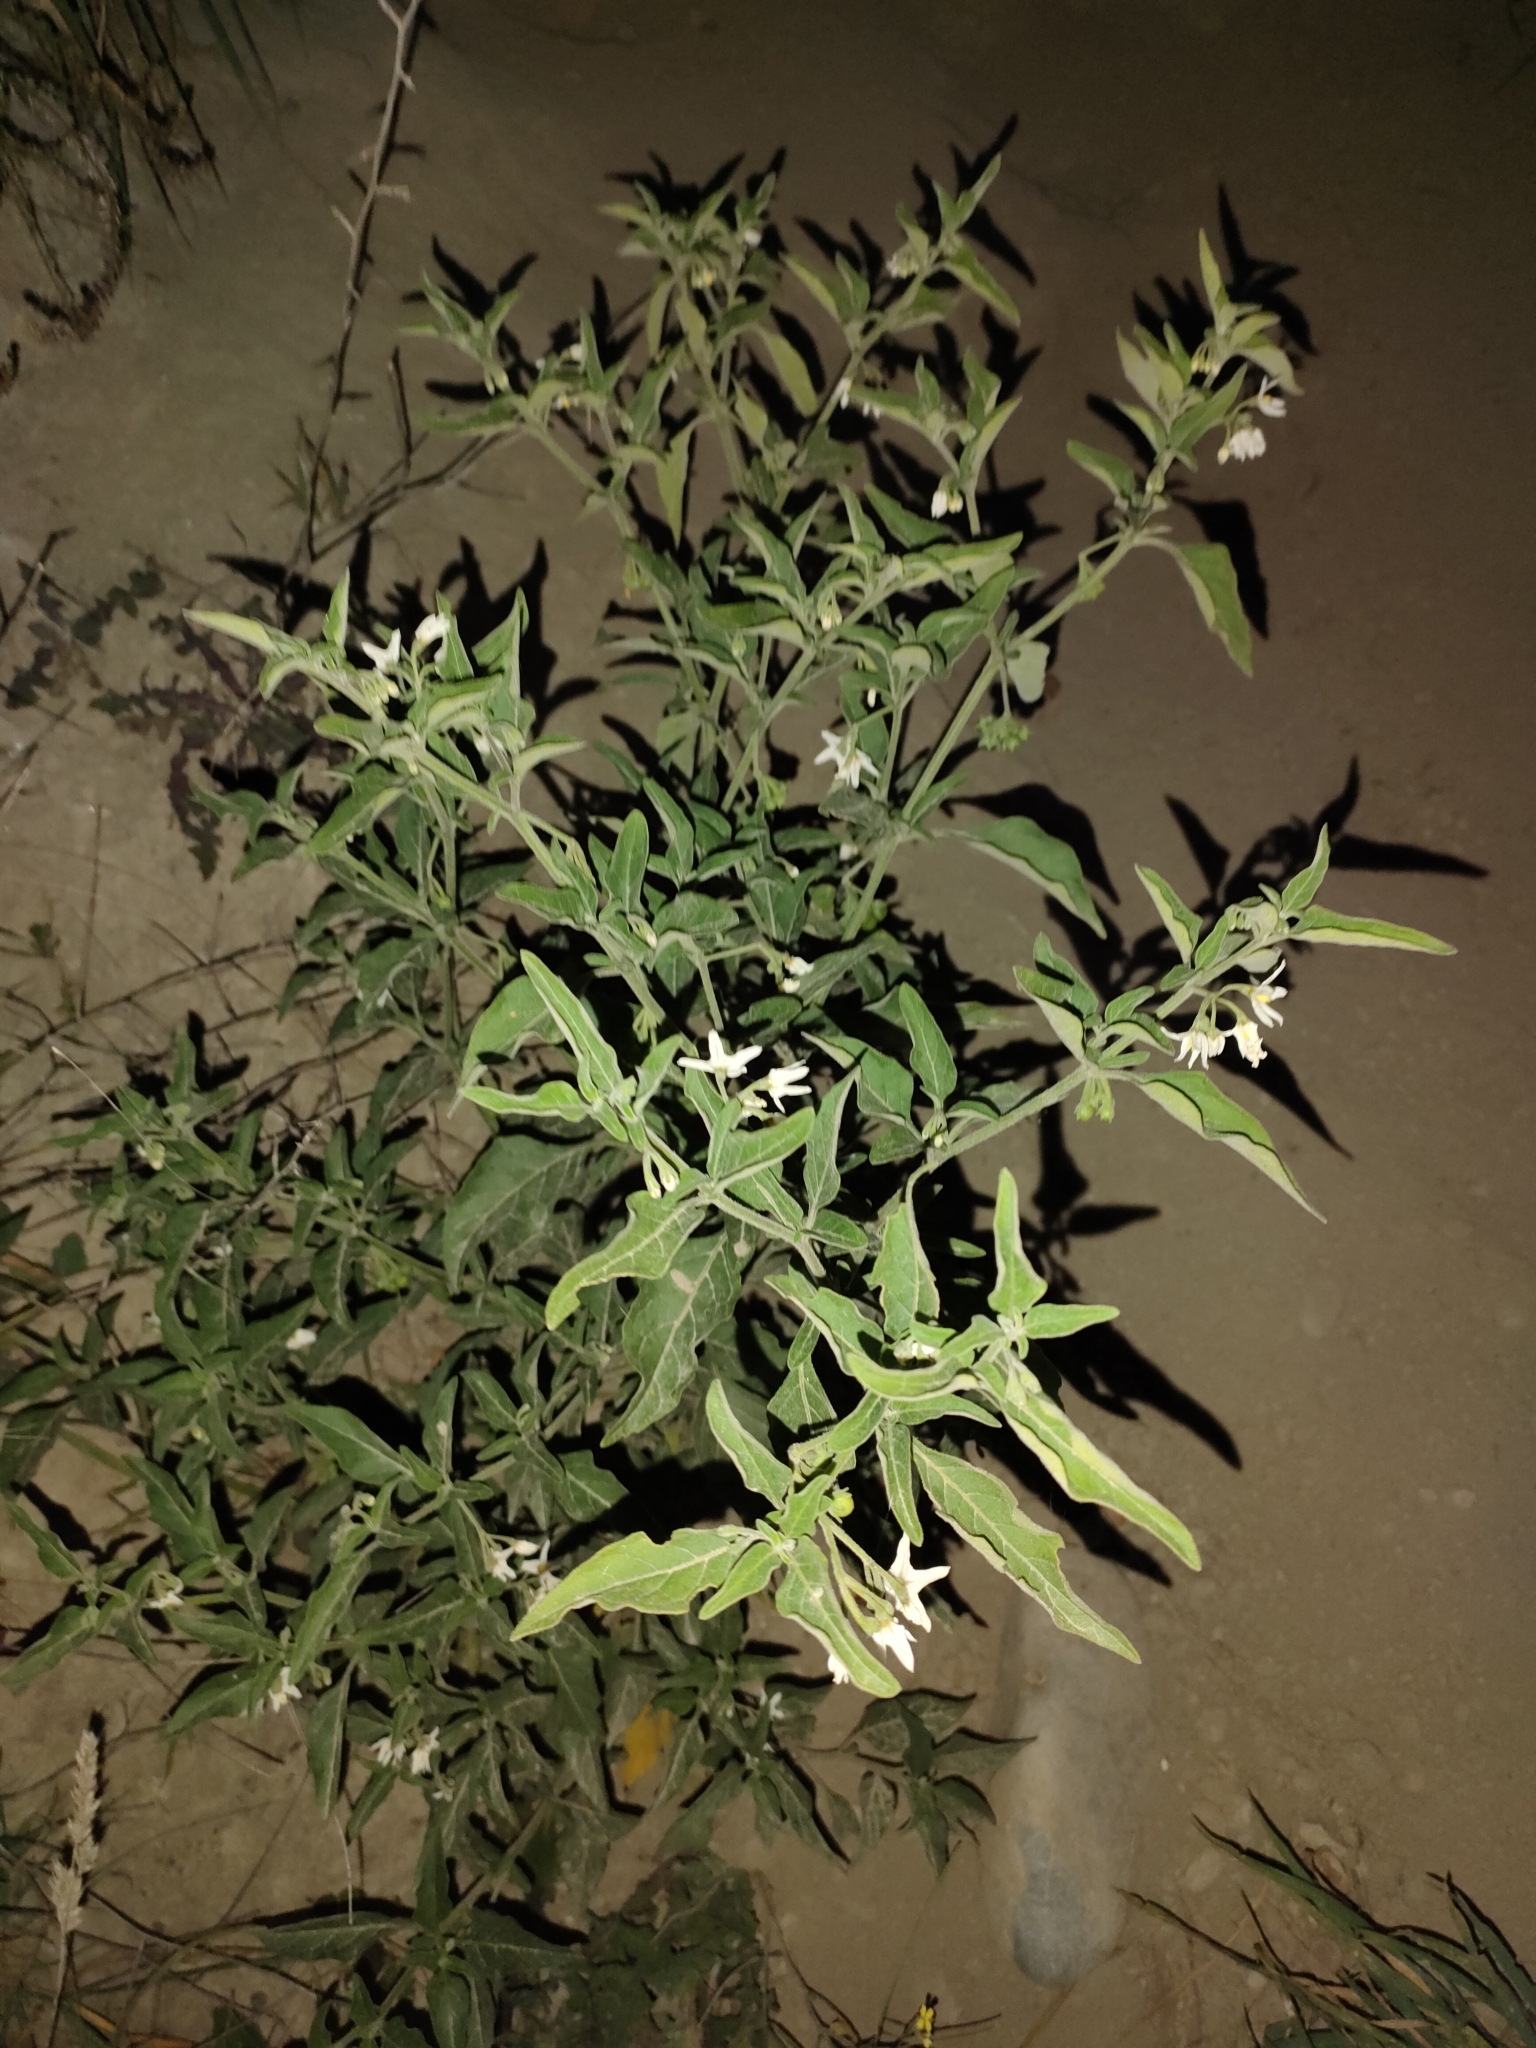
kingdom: Plantae
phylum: Tracheophyta
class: Magnoliopsida
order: Solanales
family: Solanaceae
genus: Solanum
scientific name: Solanum chenopodioides
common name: Tall nightshade
